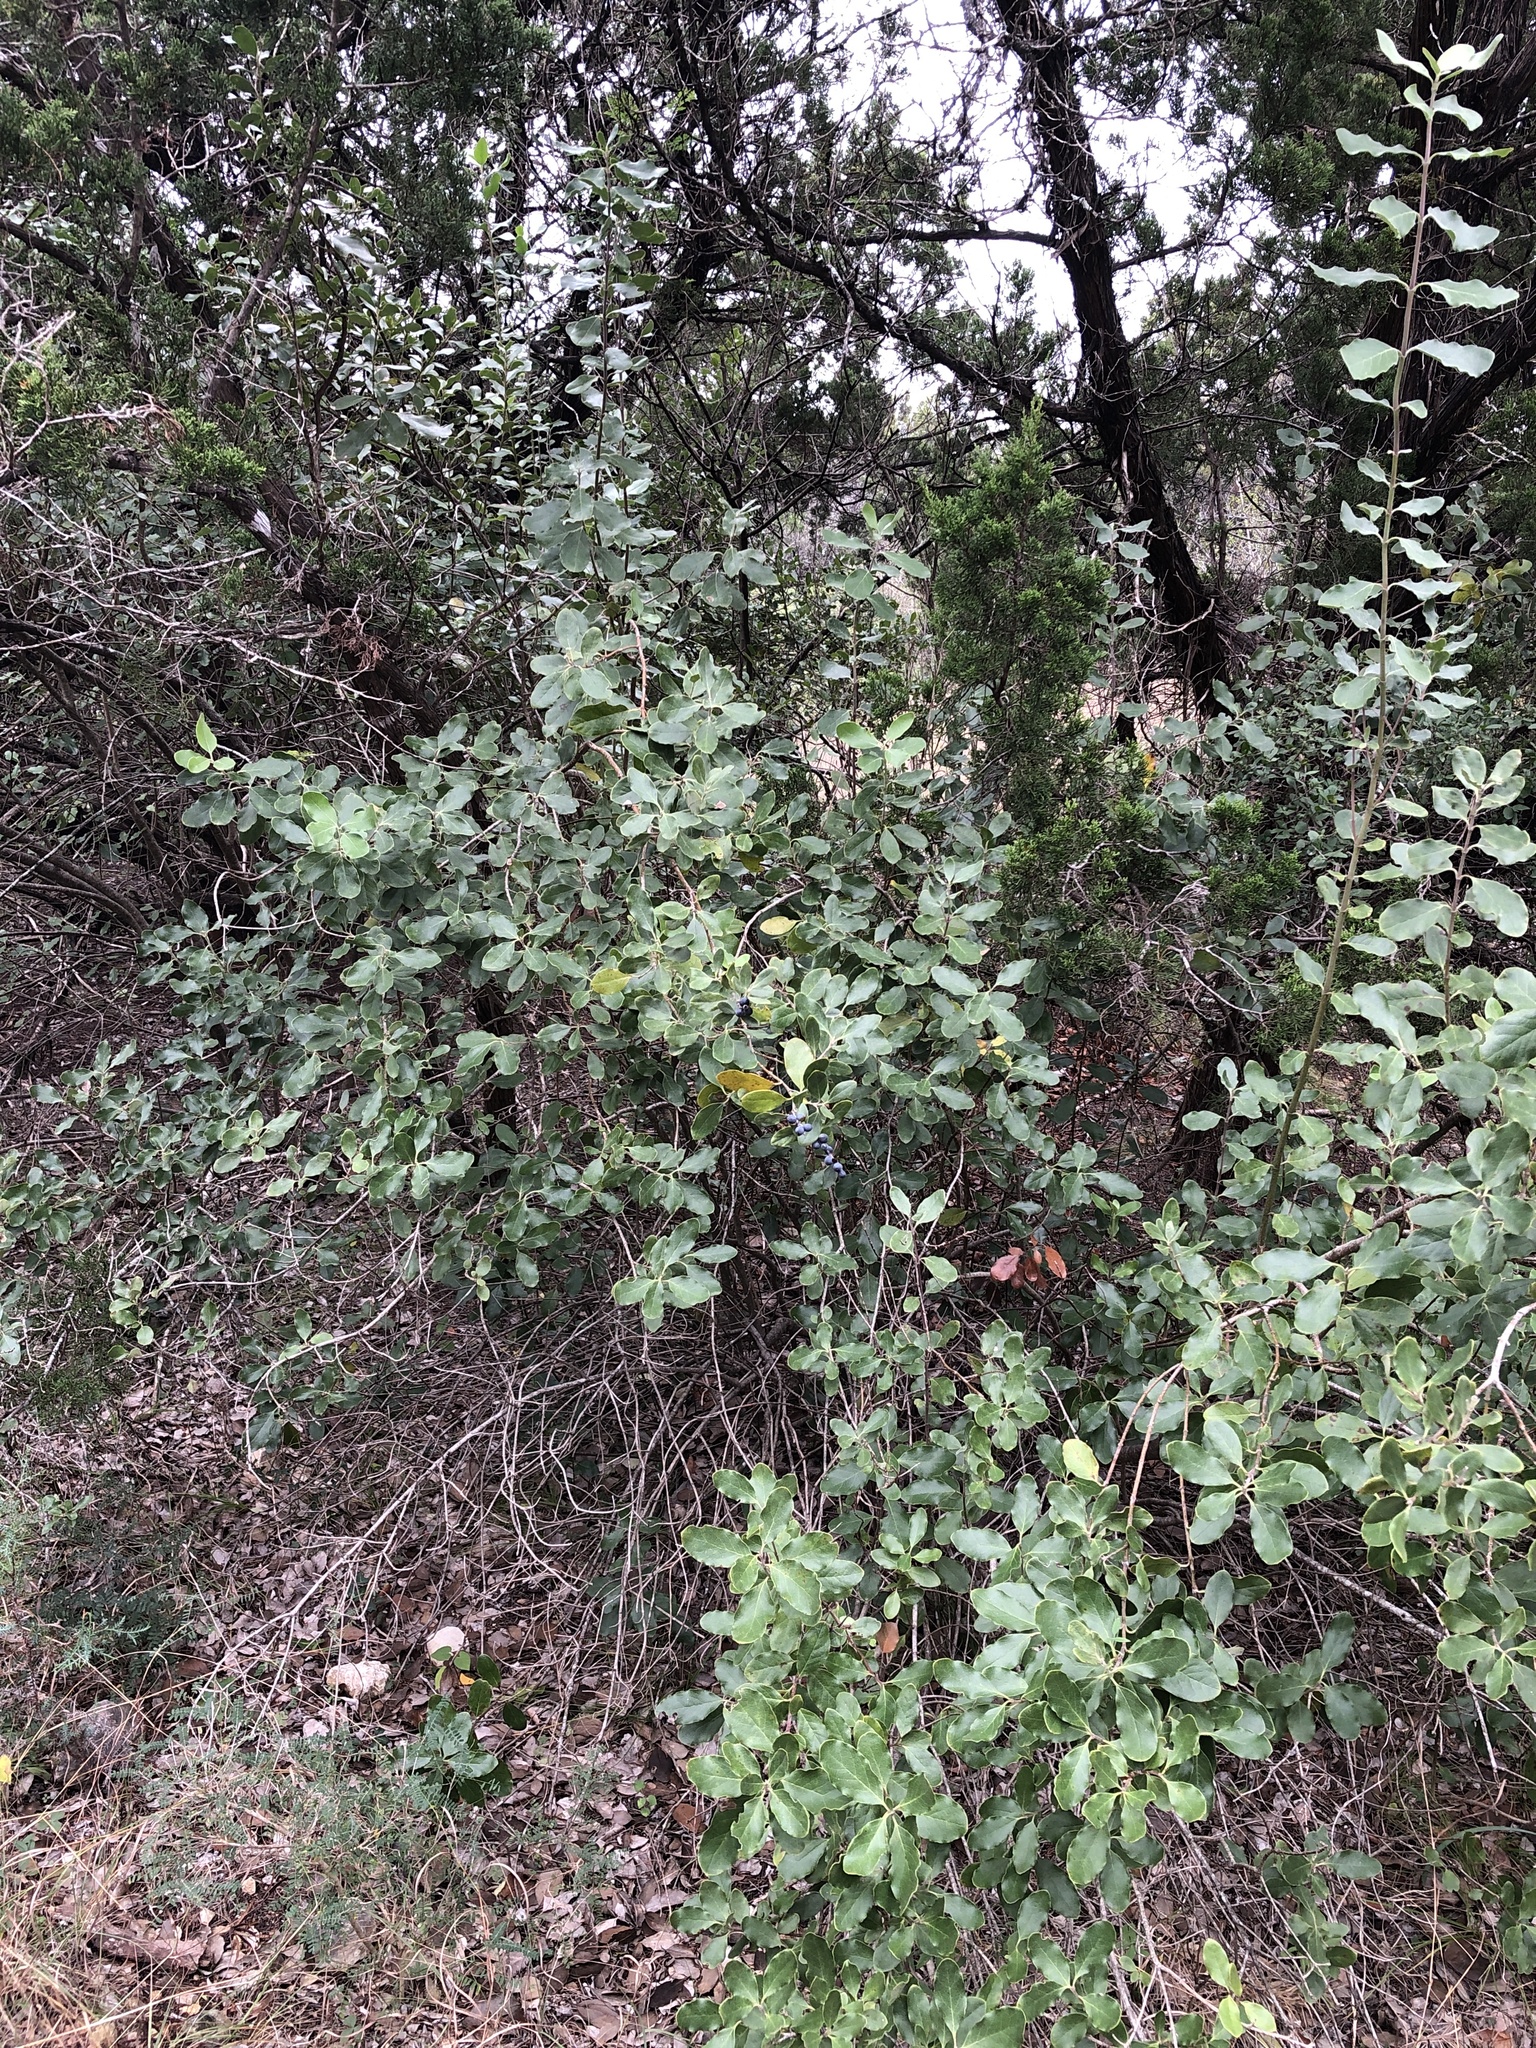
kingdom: Plantae
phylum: Tracheophyta
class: Magnoliopsida
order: Garryales
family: Garryaceae
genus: Garrya
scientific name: Garrya lindheimeri
